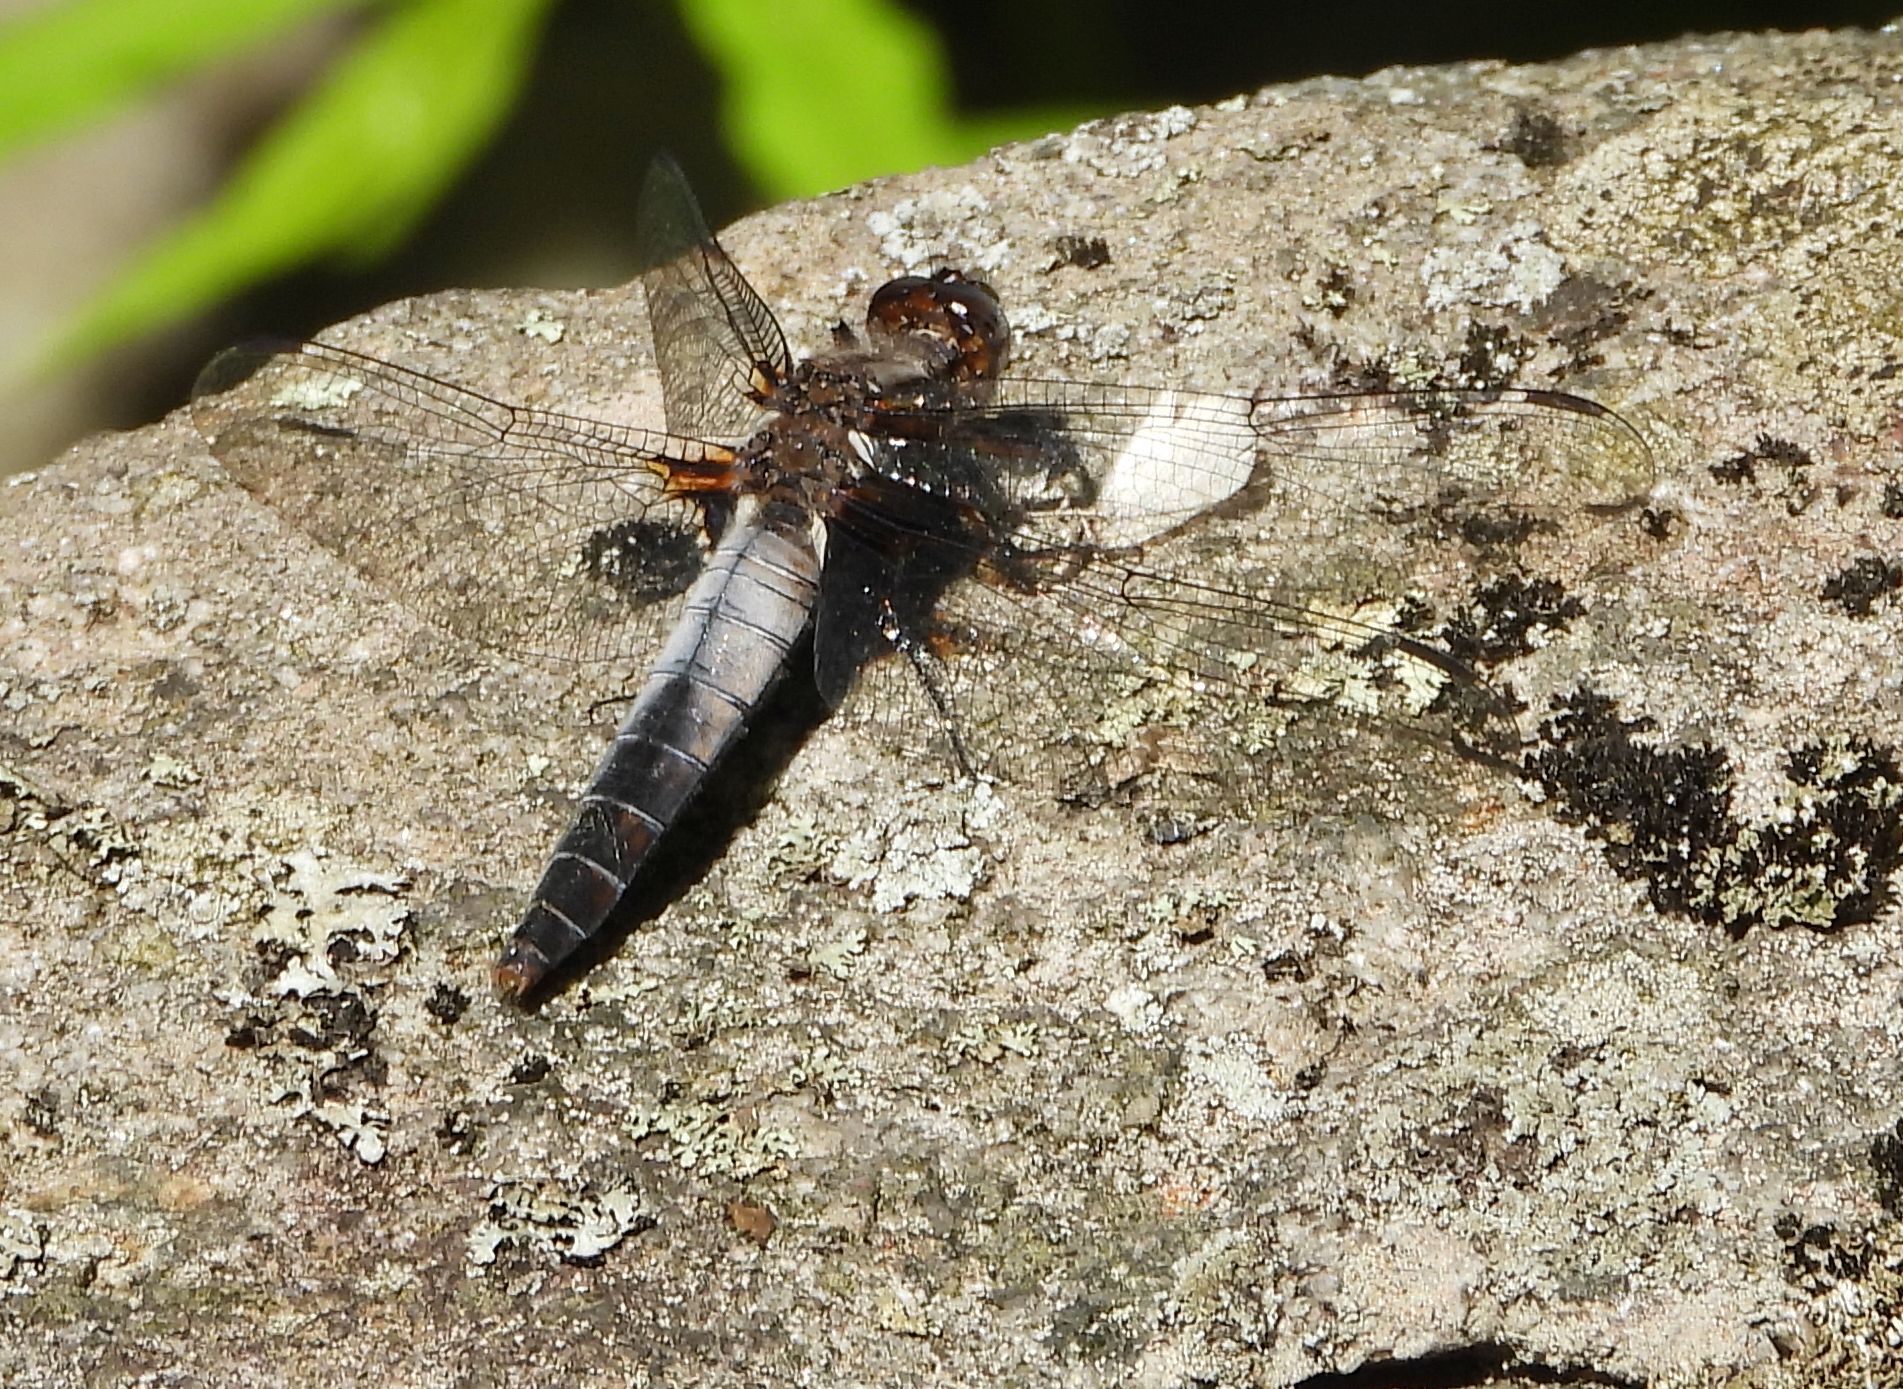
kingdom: Animalia
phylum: Arthropoda
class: Insecta
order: Odonata
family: Libellulidae
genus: Ladona
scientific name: Ladona julia
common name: Chalk-fronted corporal
